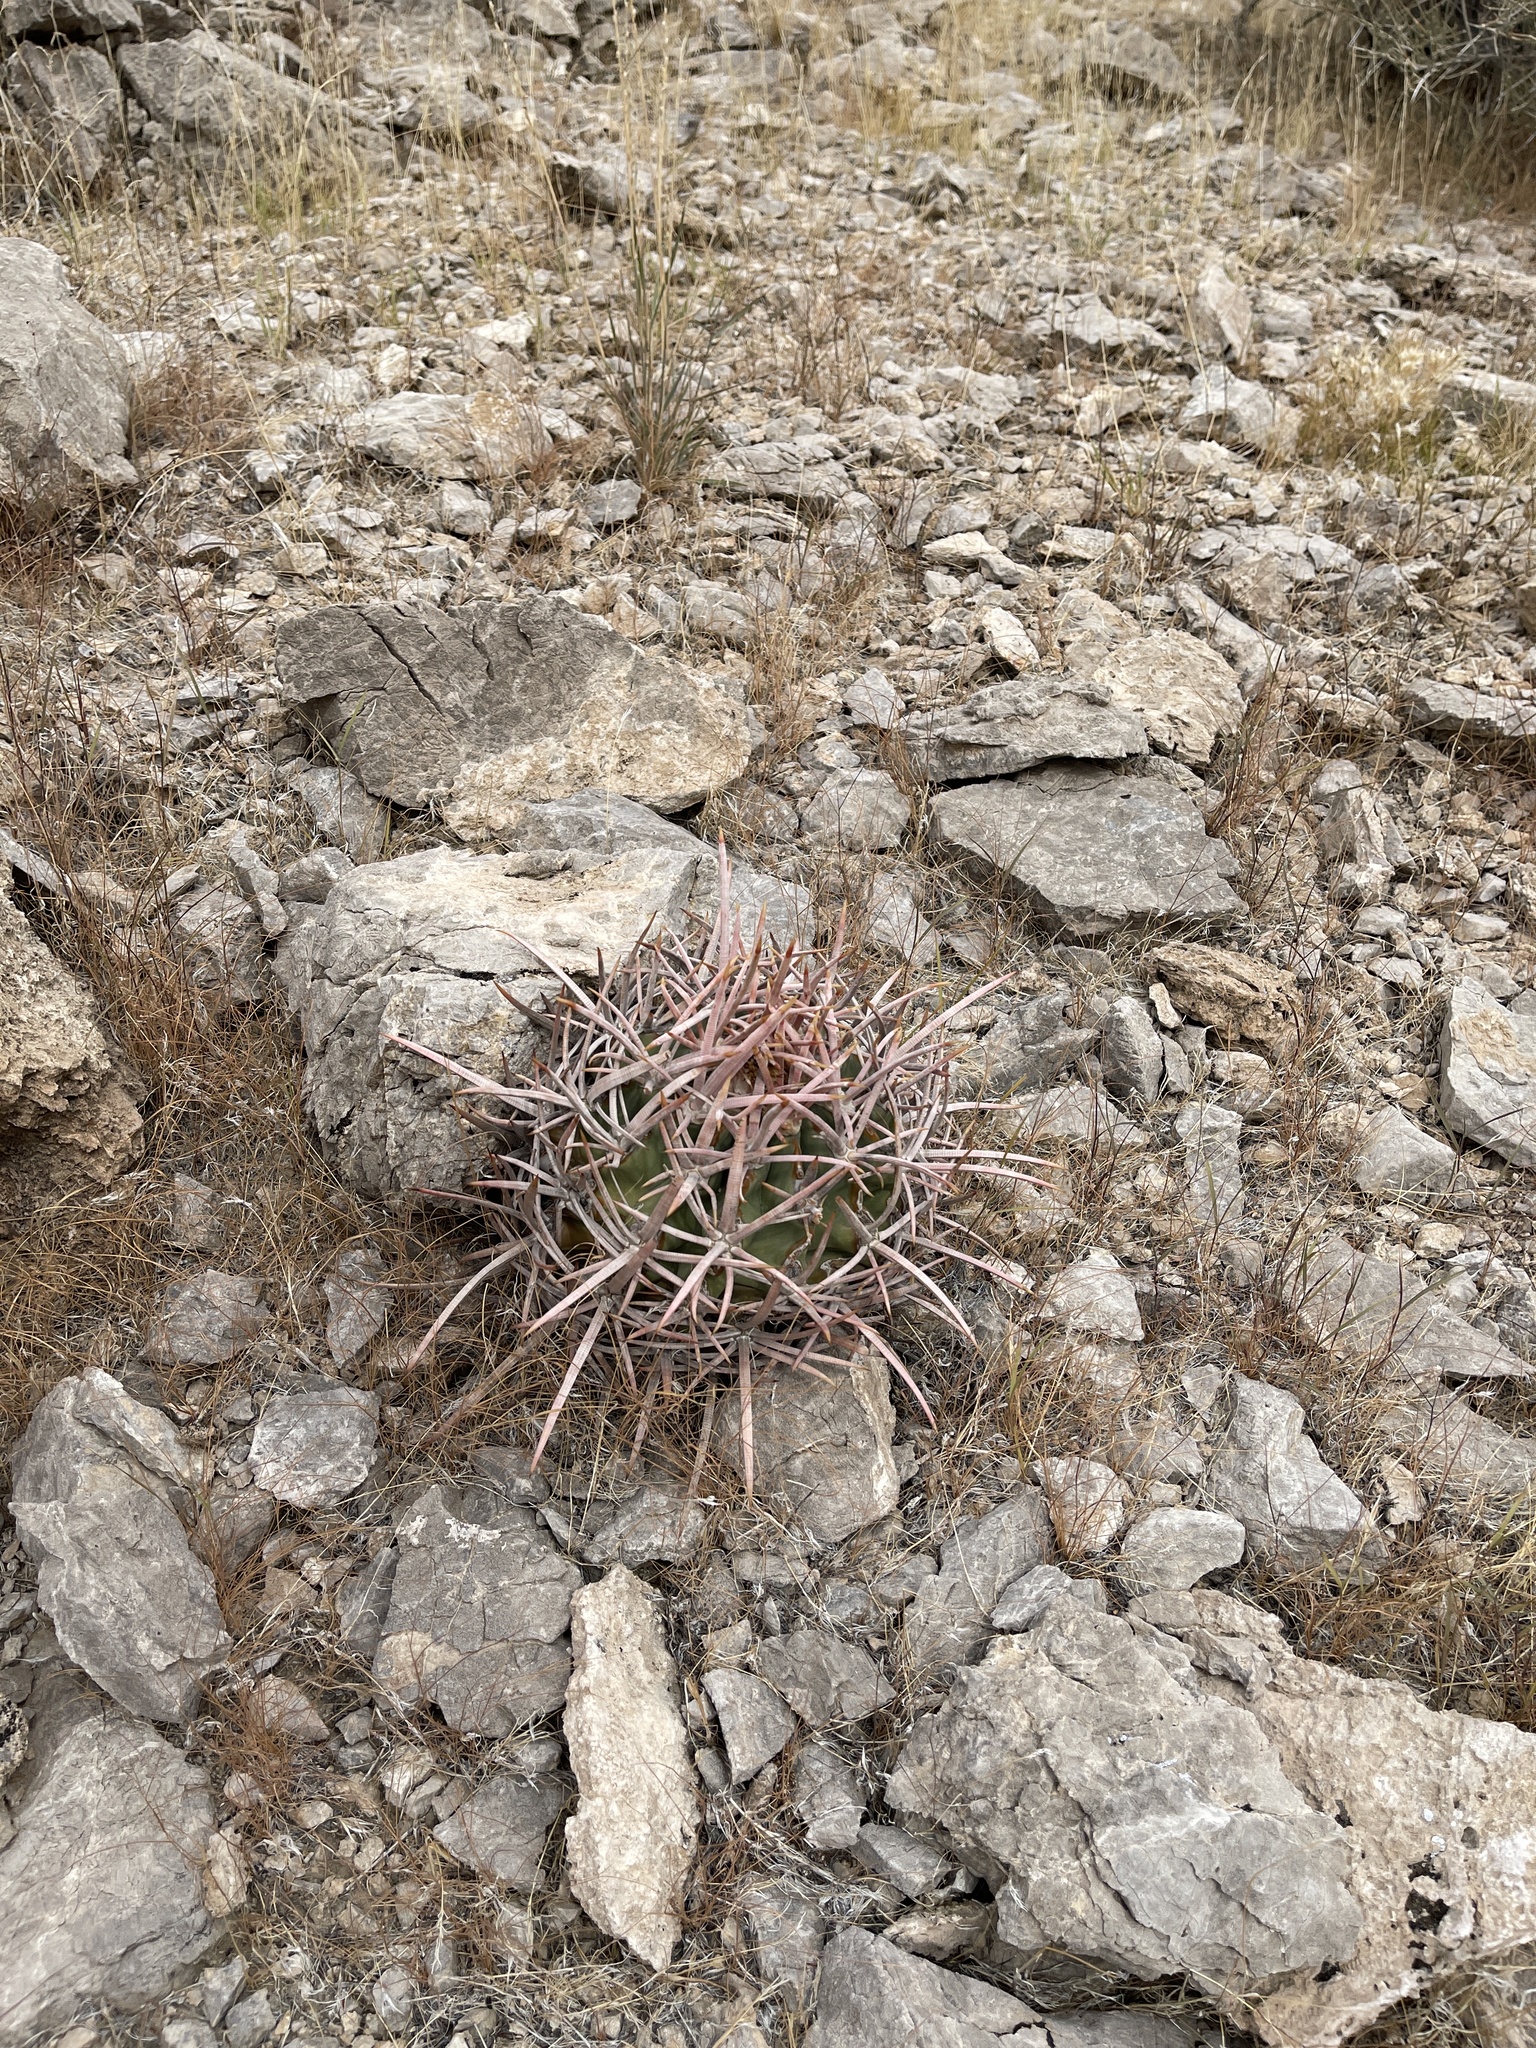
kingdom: Plantae
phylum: Tracheophyta
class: Magnoliopsida
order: Caryophyllales
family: Cactaceae
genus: Echinocactus
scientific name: Echinocactus polycephalus
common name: Cottontop cactus
